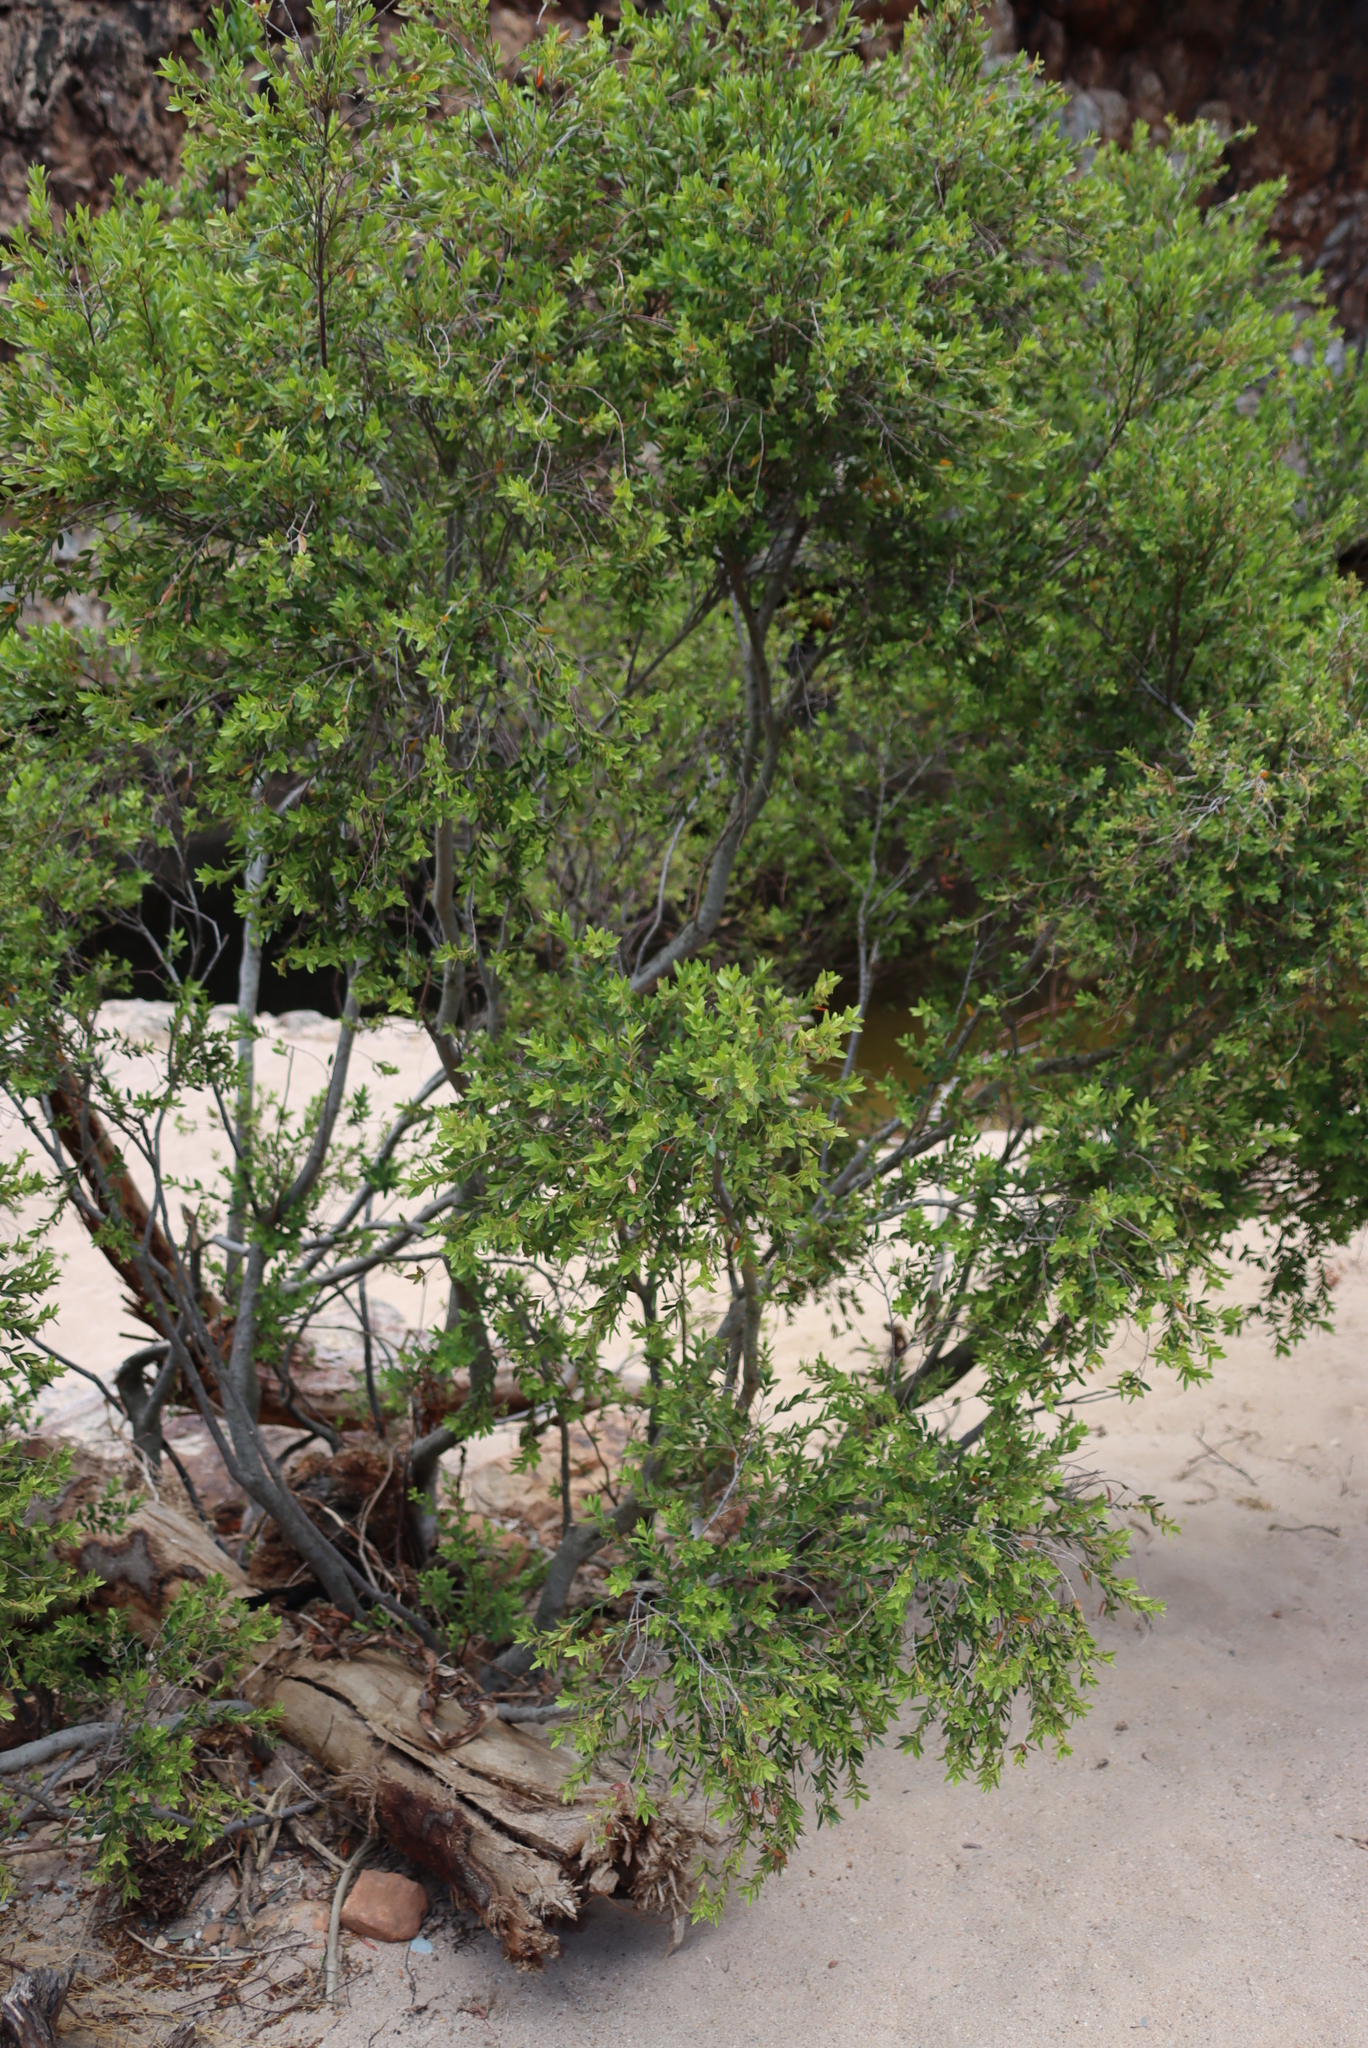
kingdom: Plantae
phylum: Tracheophyta
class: Magnoliopsida
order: Ericales
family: Ebenaceae
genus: Diospyros
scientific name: Diospyros glabra
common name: Fynbos star apple
